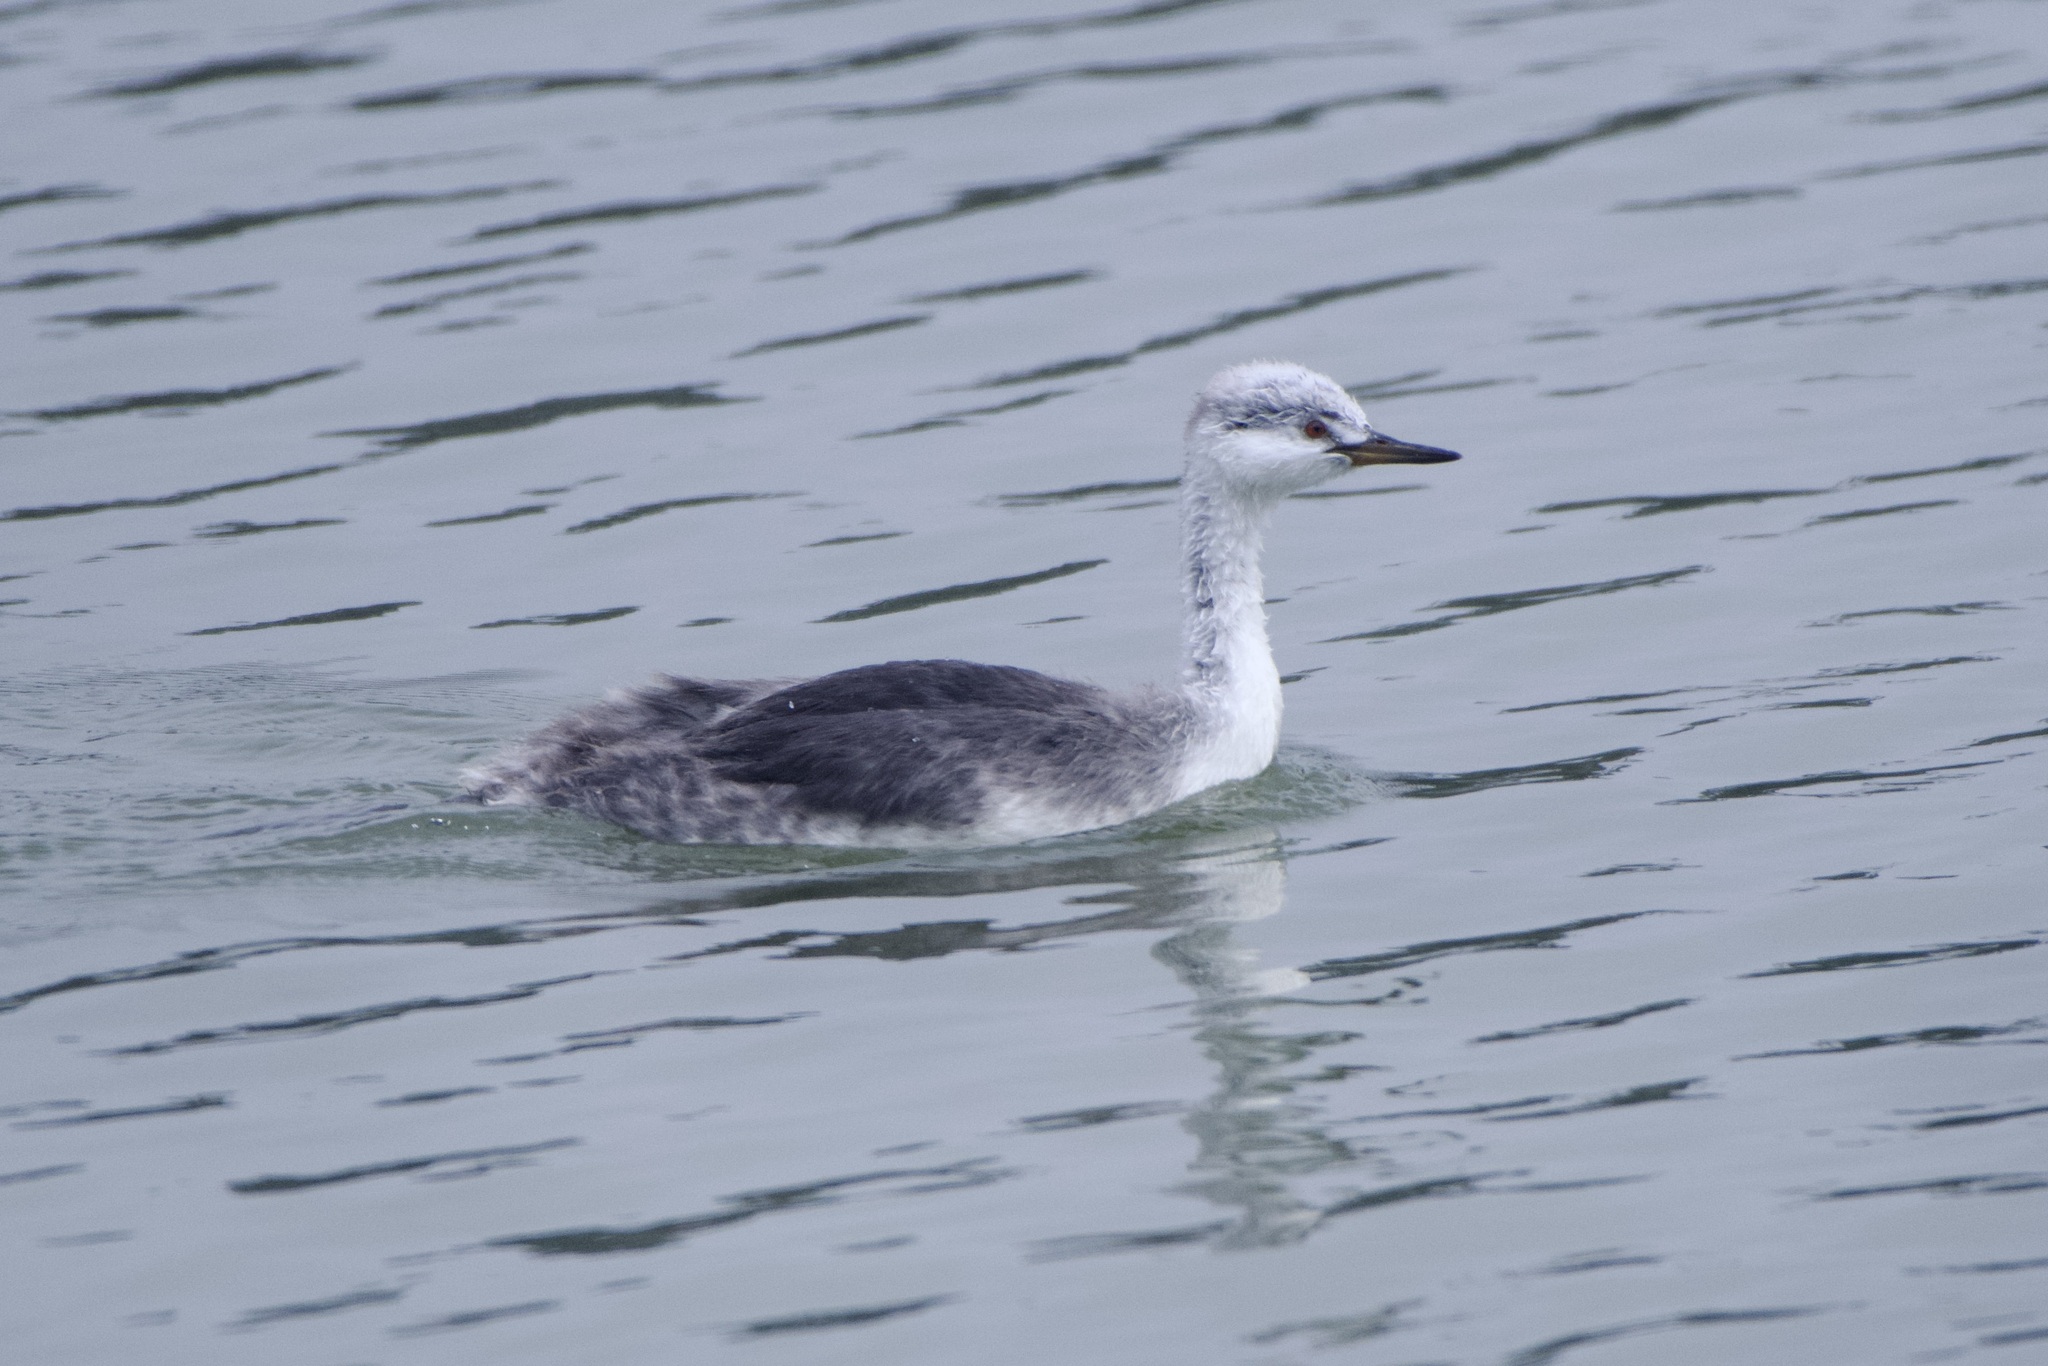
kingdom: Animalia
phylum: Chordata
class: Aves
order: Podicipediformes
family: Podicipedidae
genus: Aechmophorus
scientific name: Aechmophorus
